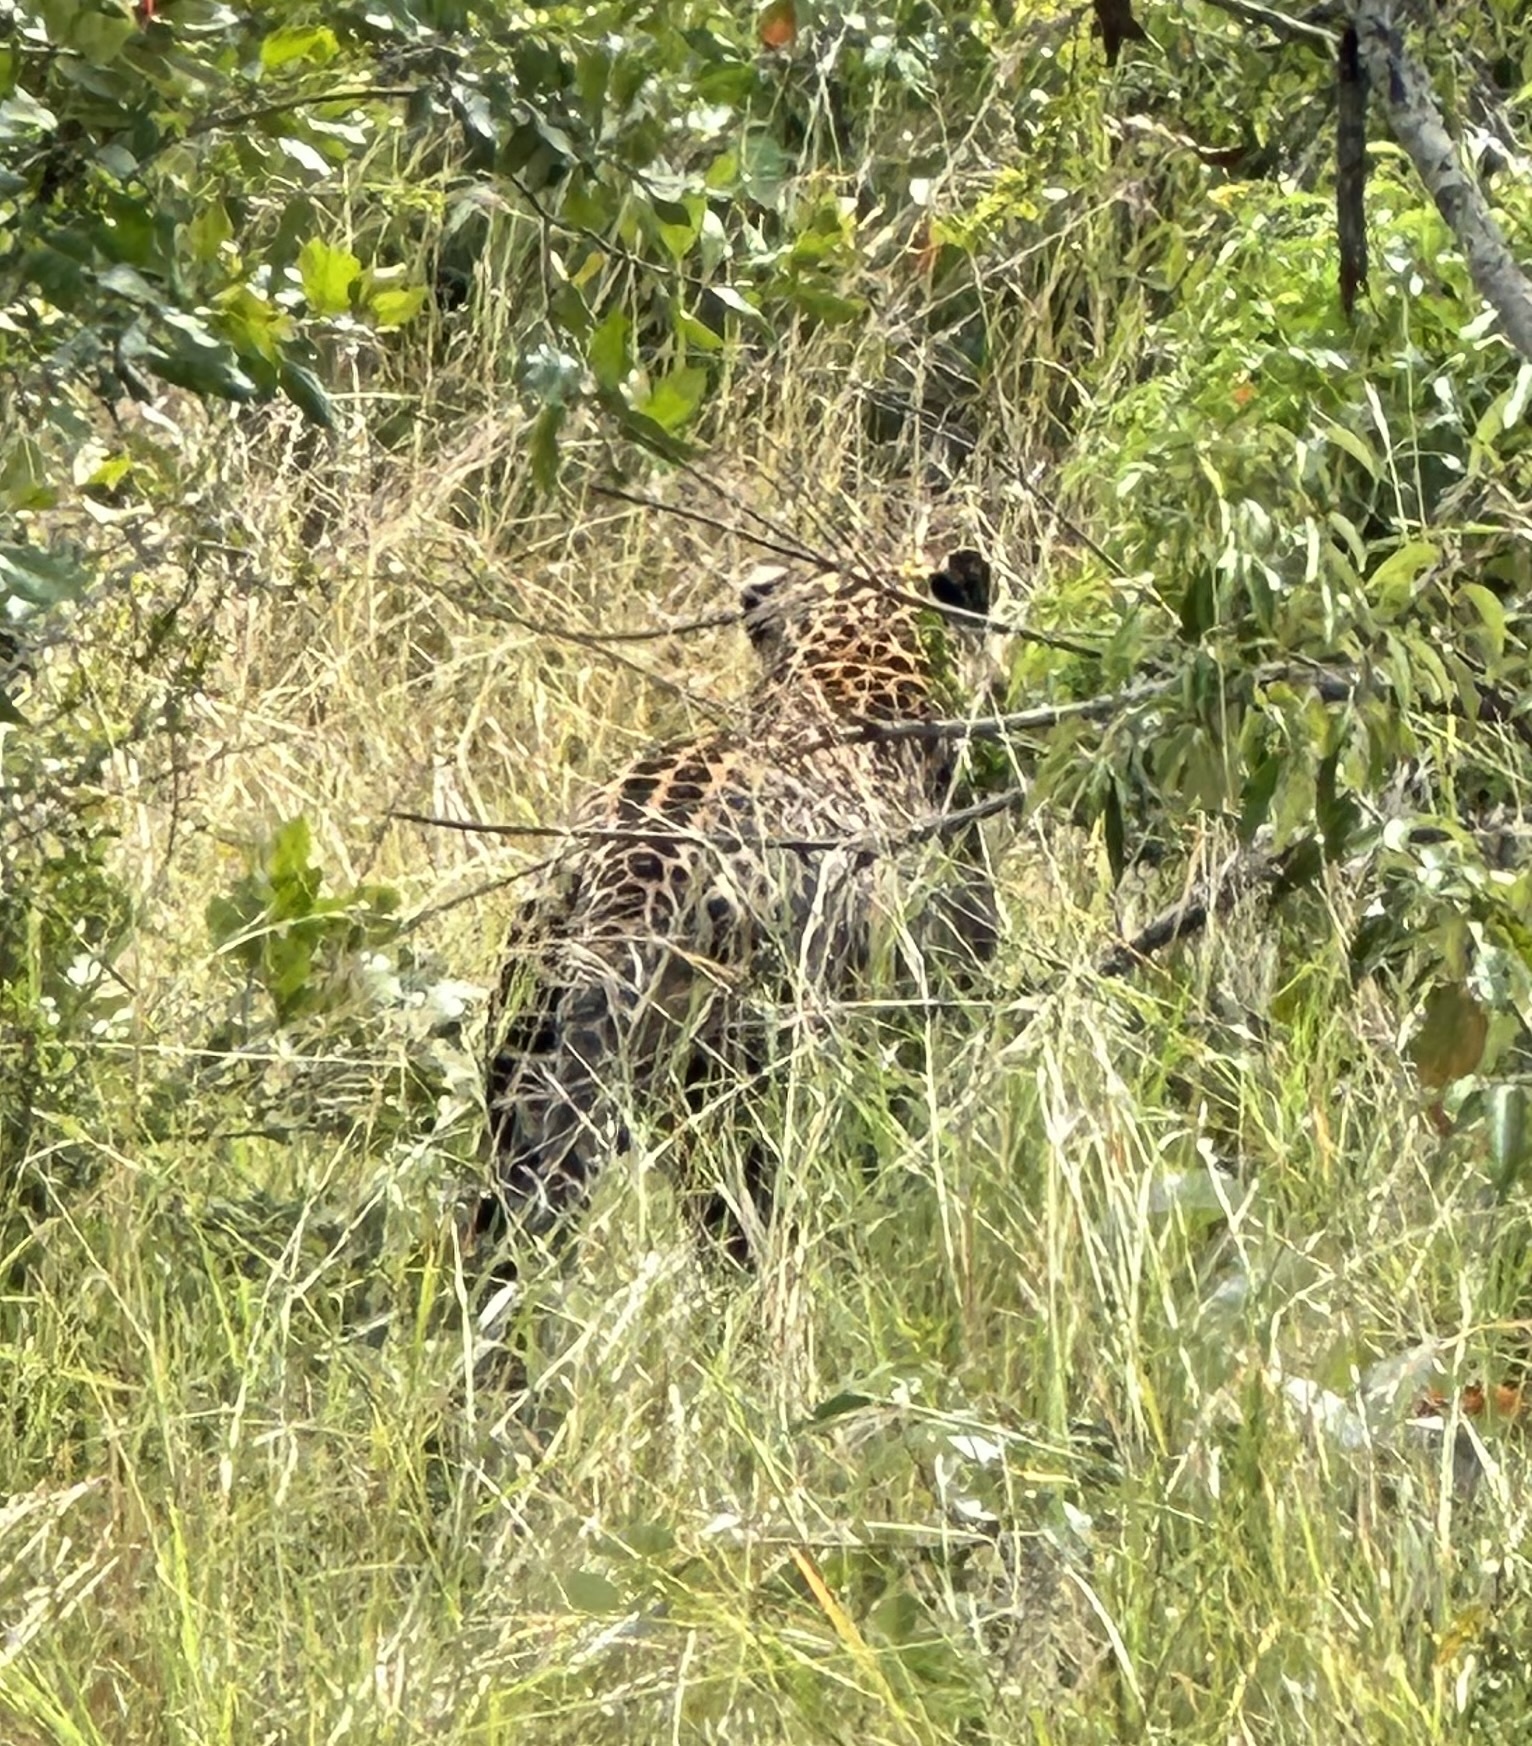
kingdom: Animalia
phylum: Chordata
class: Mammalia
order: Carnivora
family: Felidae
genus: Panthera
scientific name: Panthera pardus
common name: Leopard
